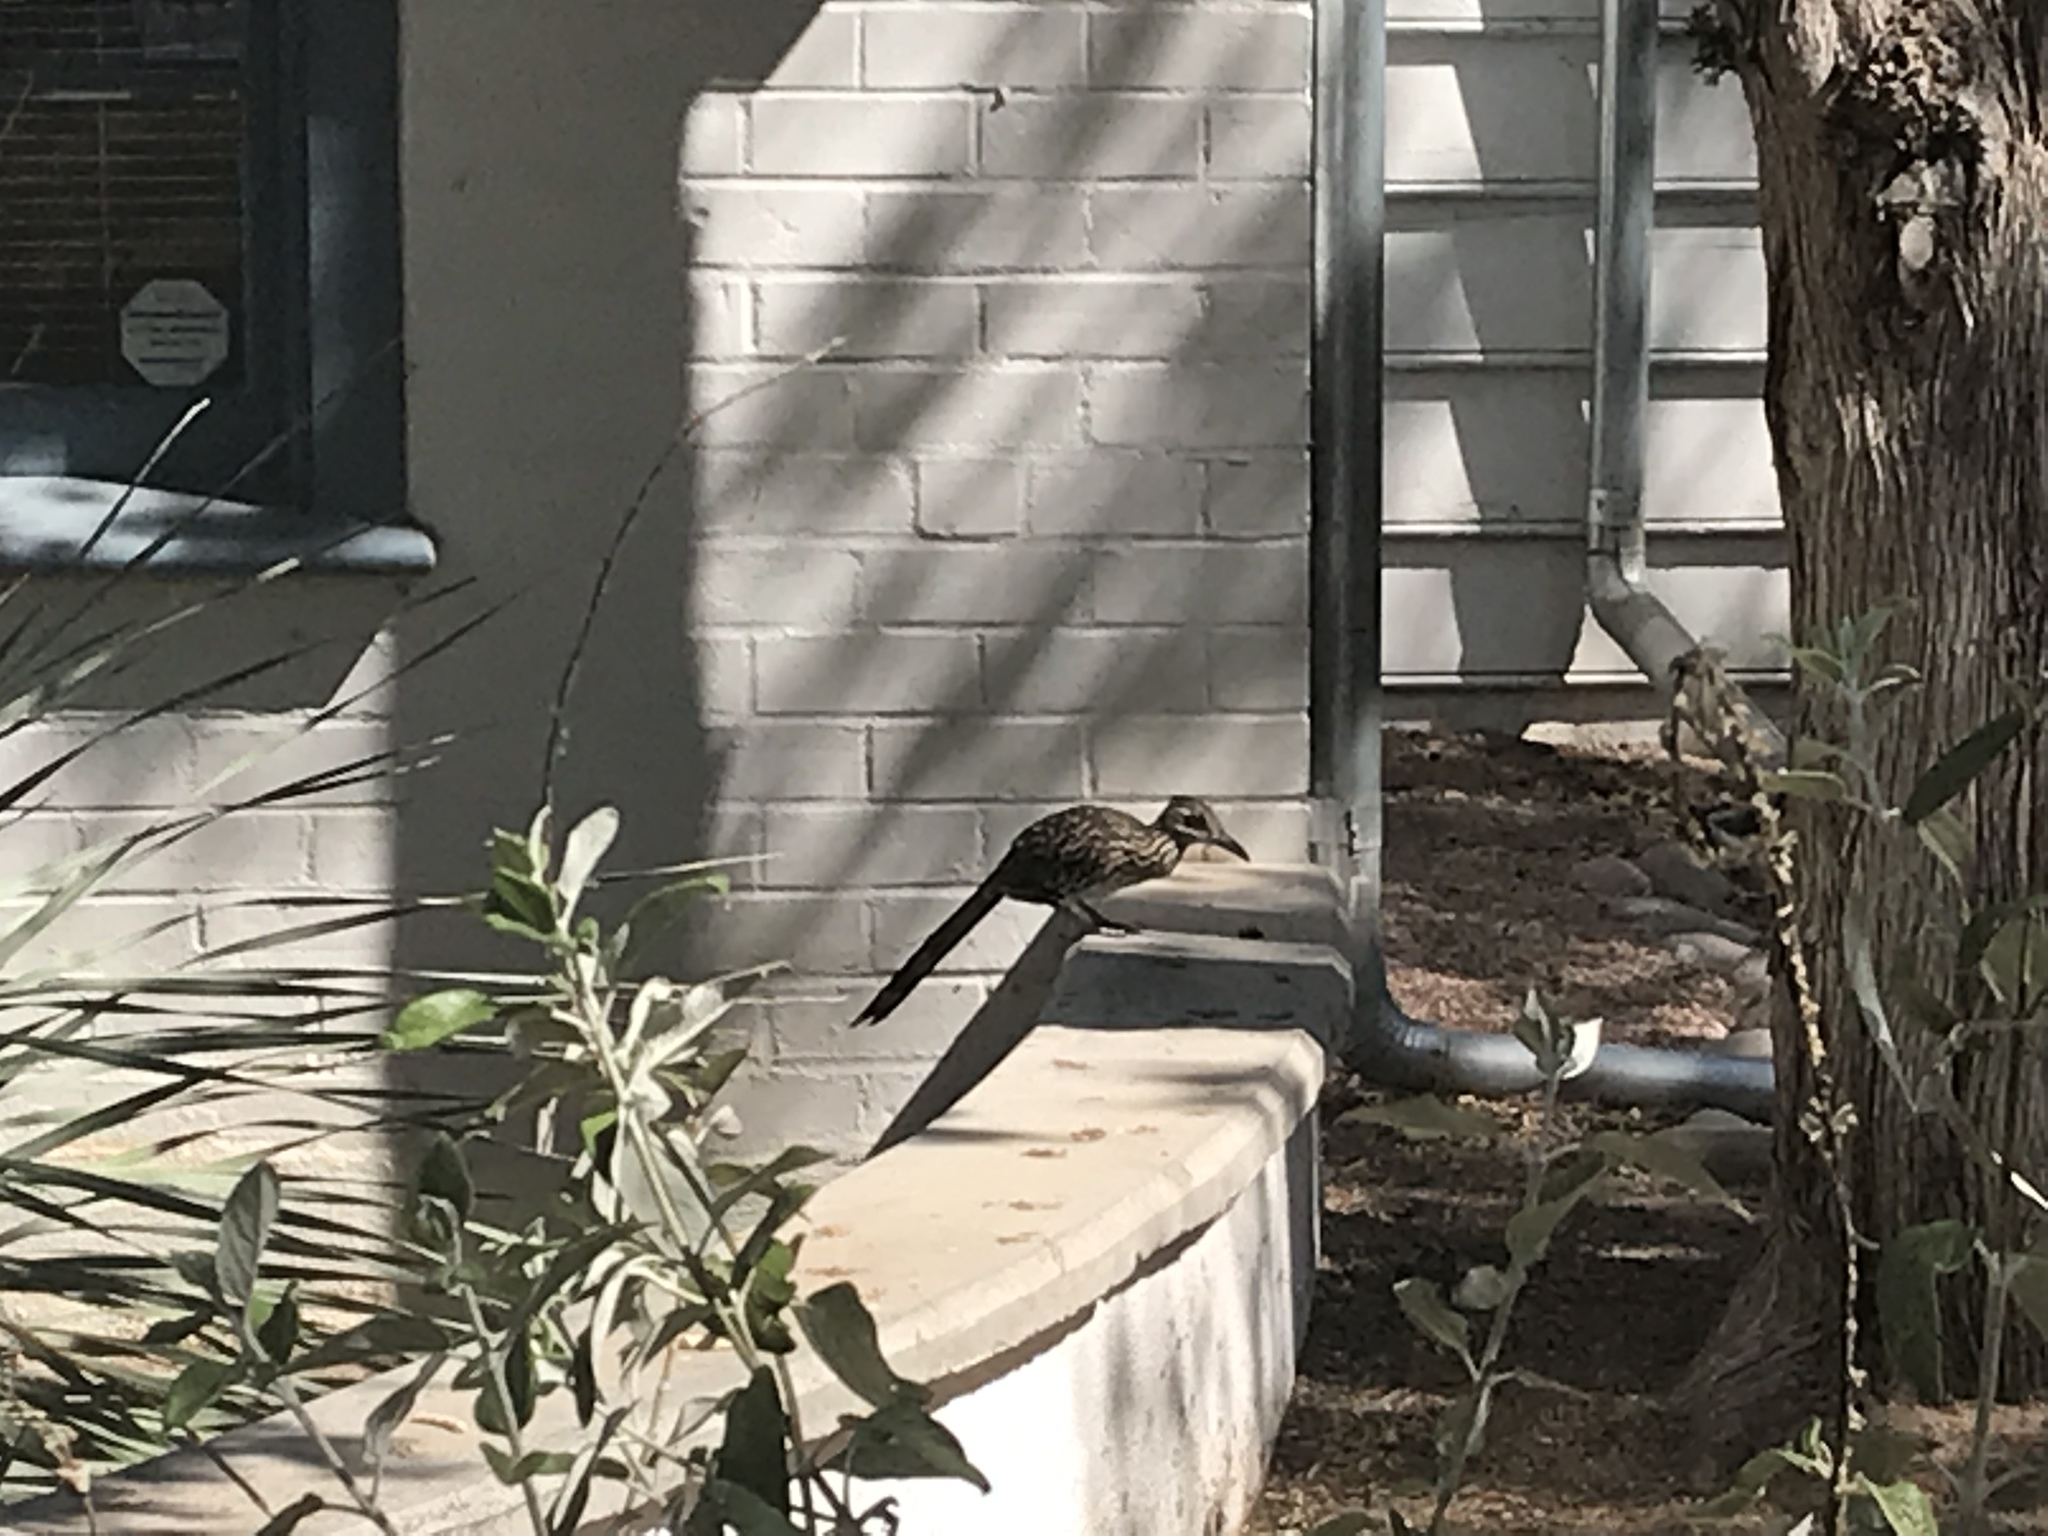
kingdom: Animalia
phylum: Chordata
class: Aves
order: Cuculiformes
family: Cuculidae
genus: Geococcyx
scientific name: Geococcyx californianus
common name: Greater roadrunner
